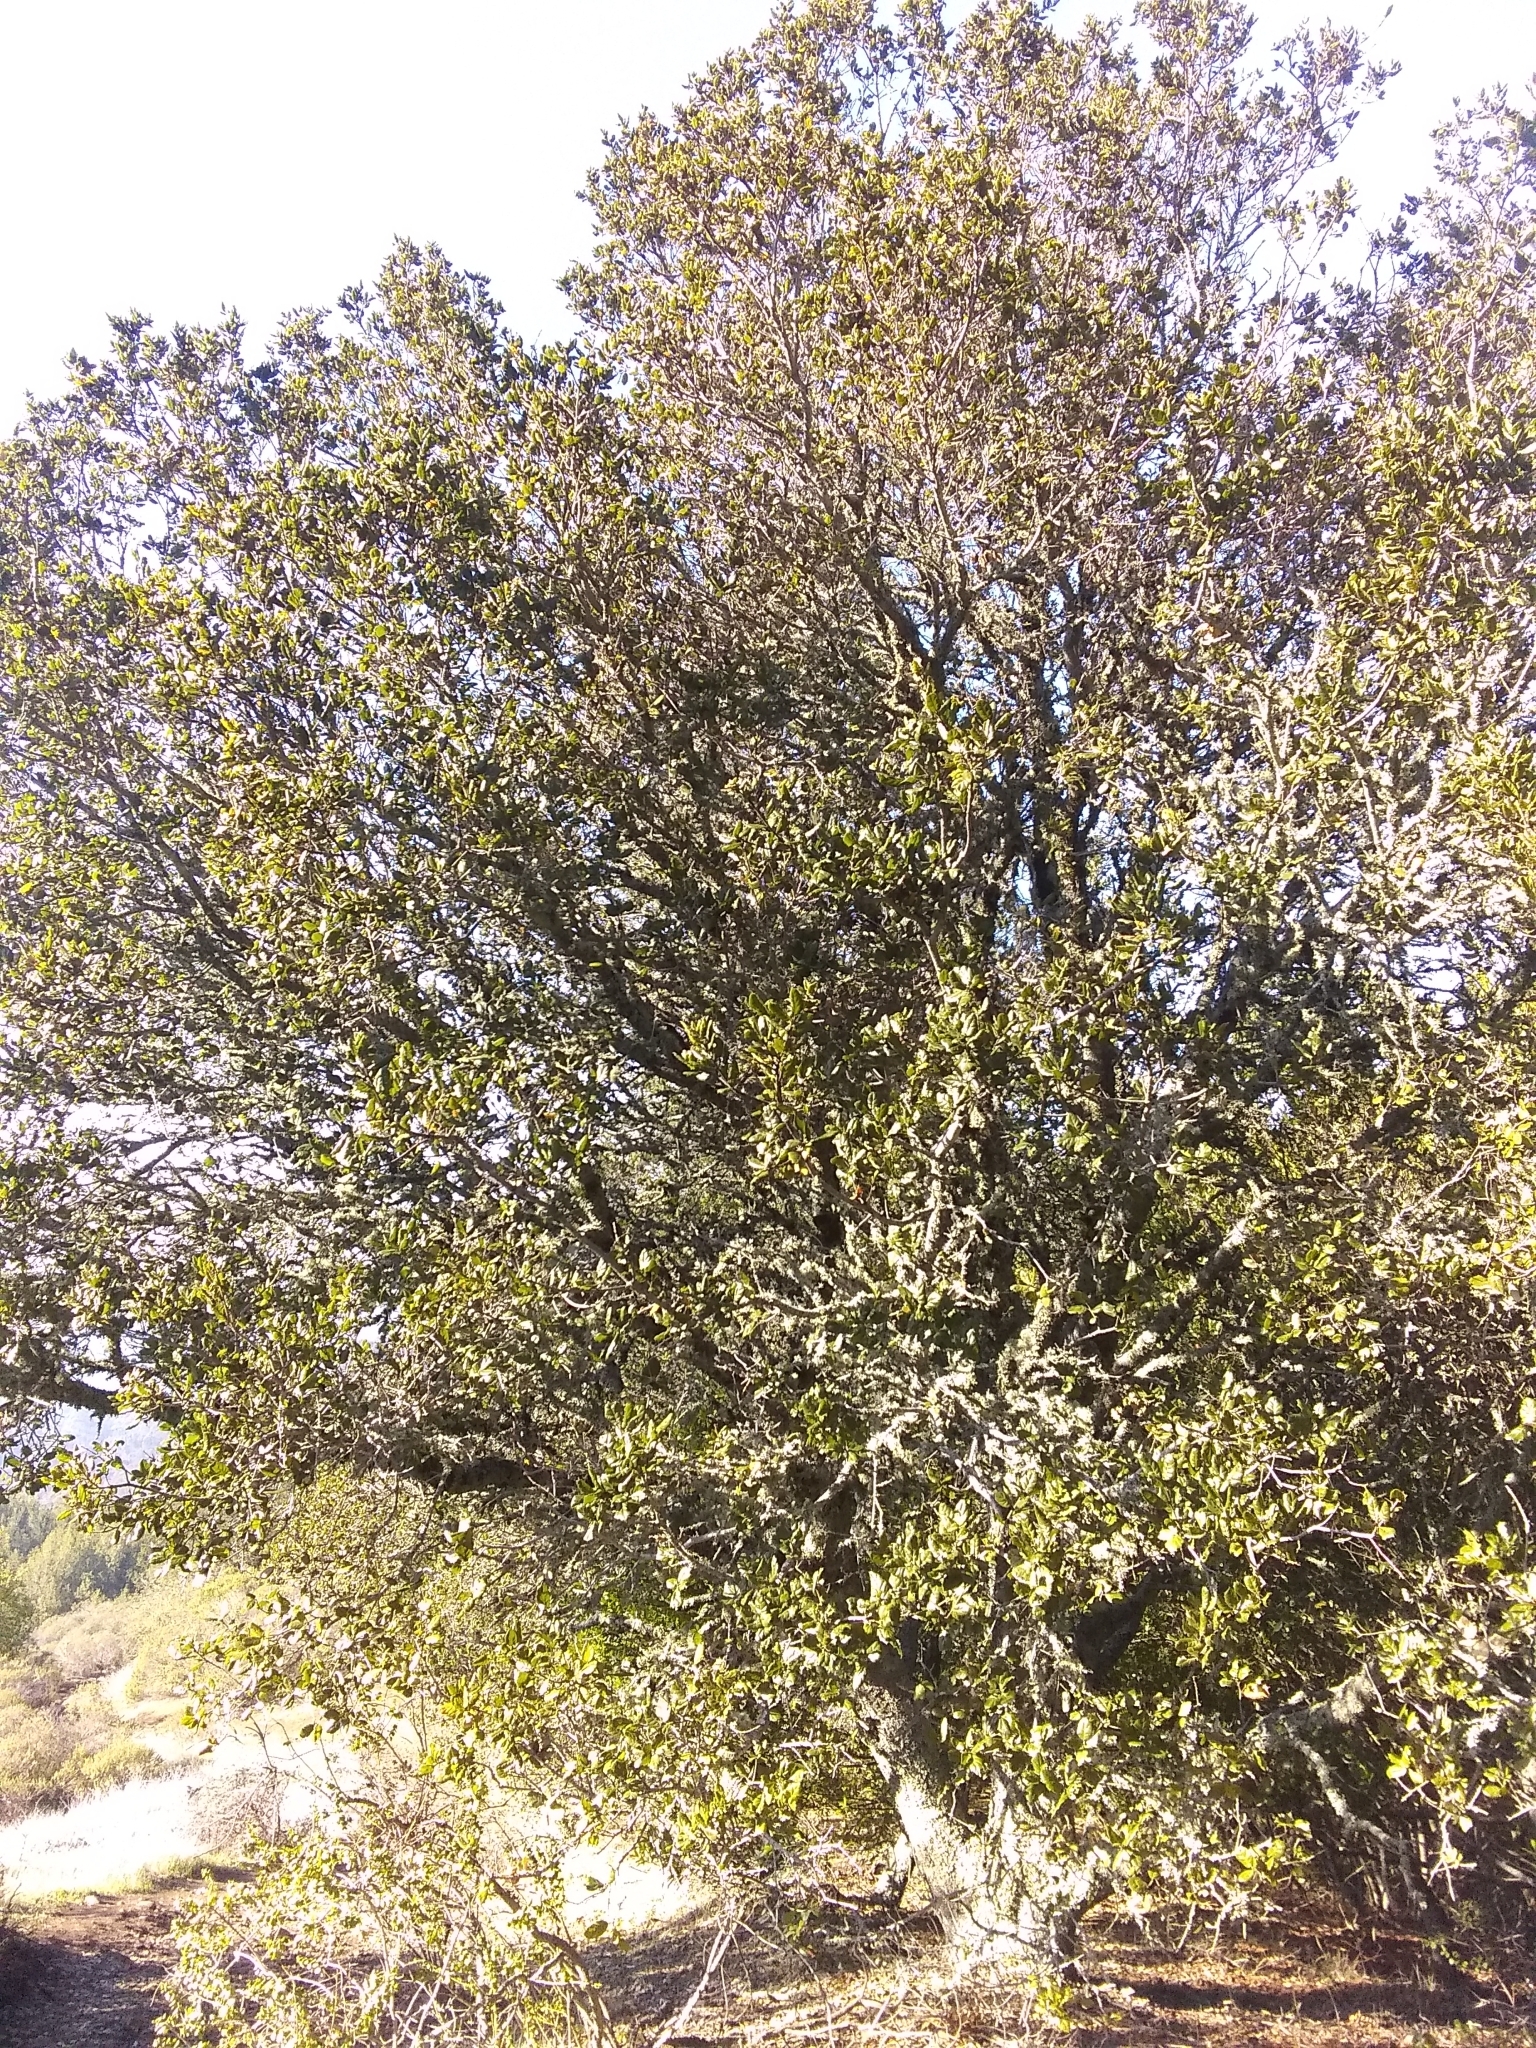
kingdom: Plantae
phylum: Tracheophyta
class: Magnoliopsida
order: Fagales
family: Fagaceae
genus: Quercus
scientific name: Quercus agrifolia
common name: California live oak
